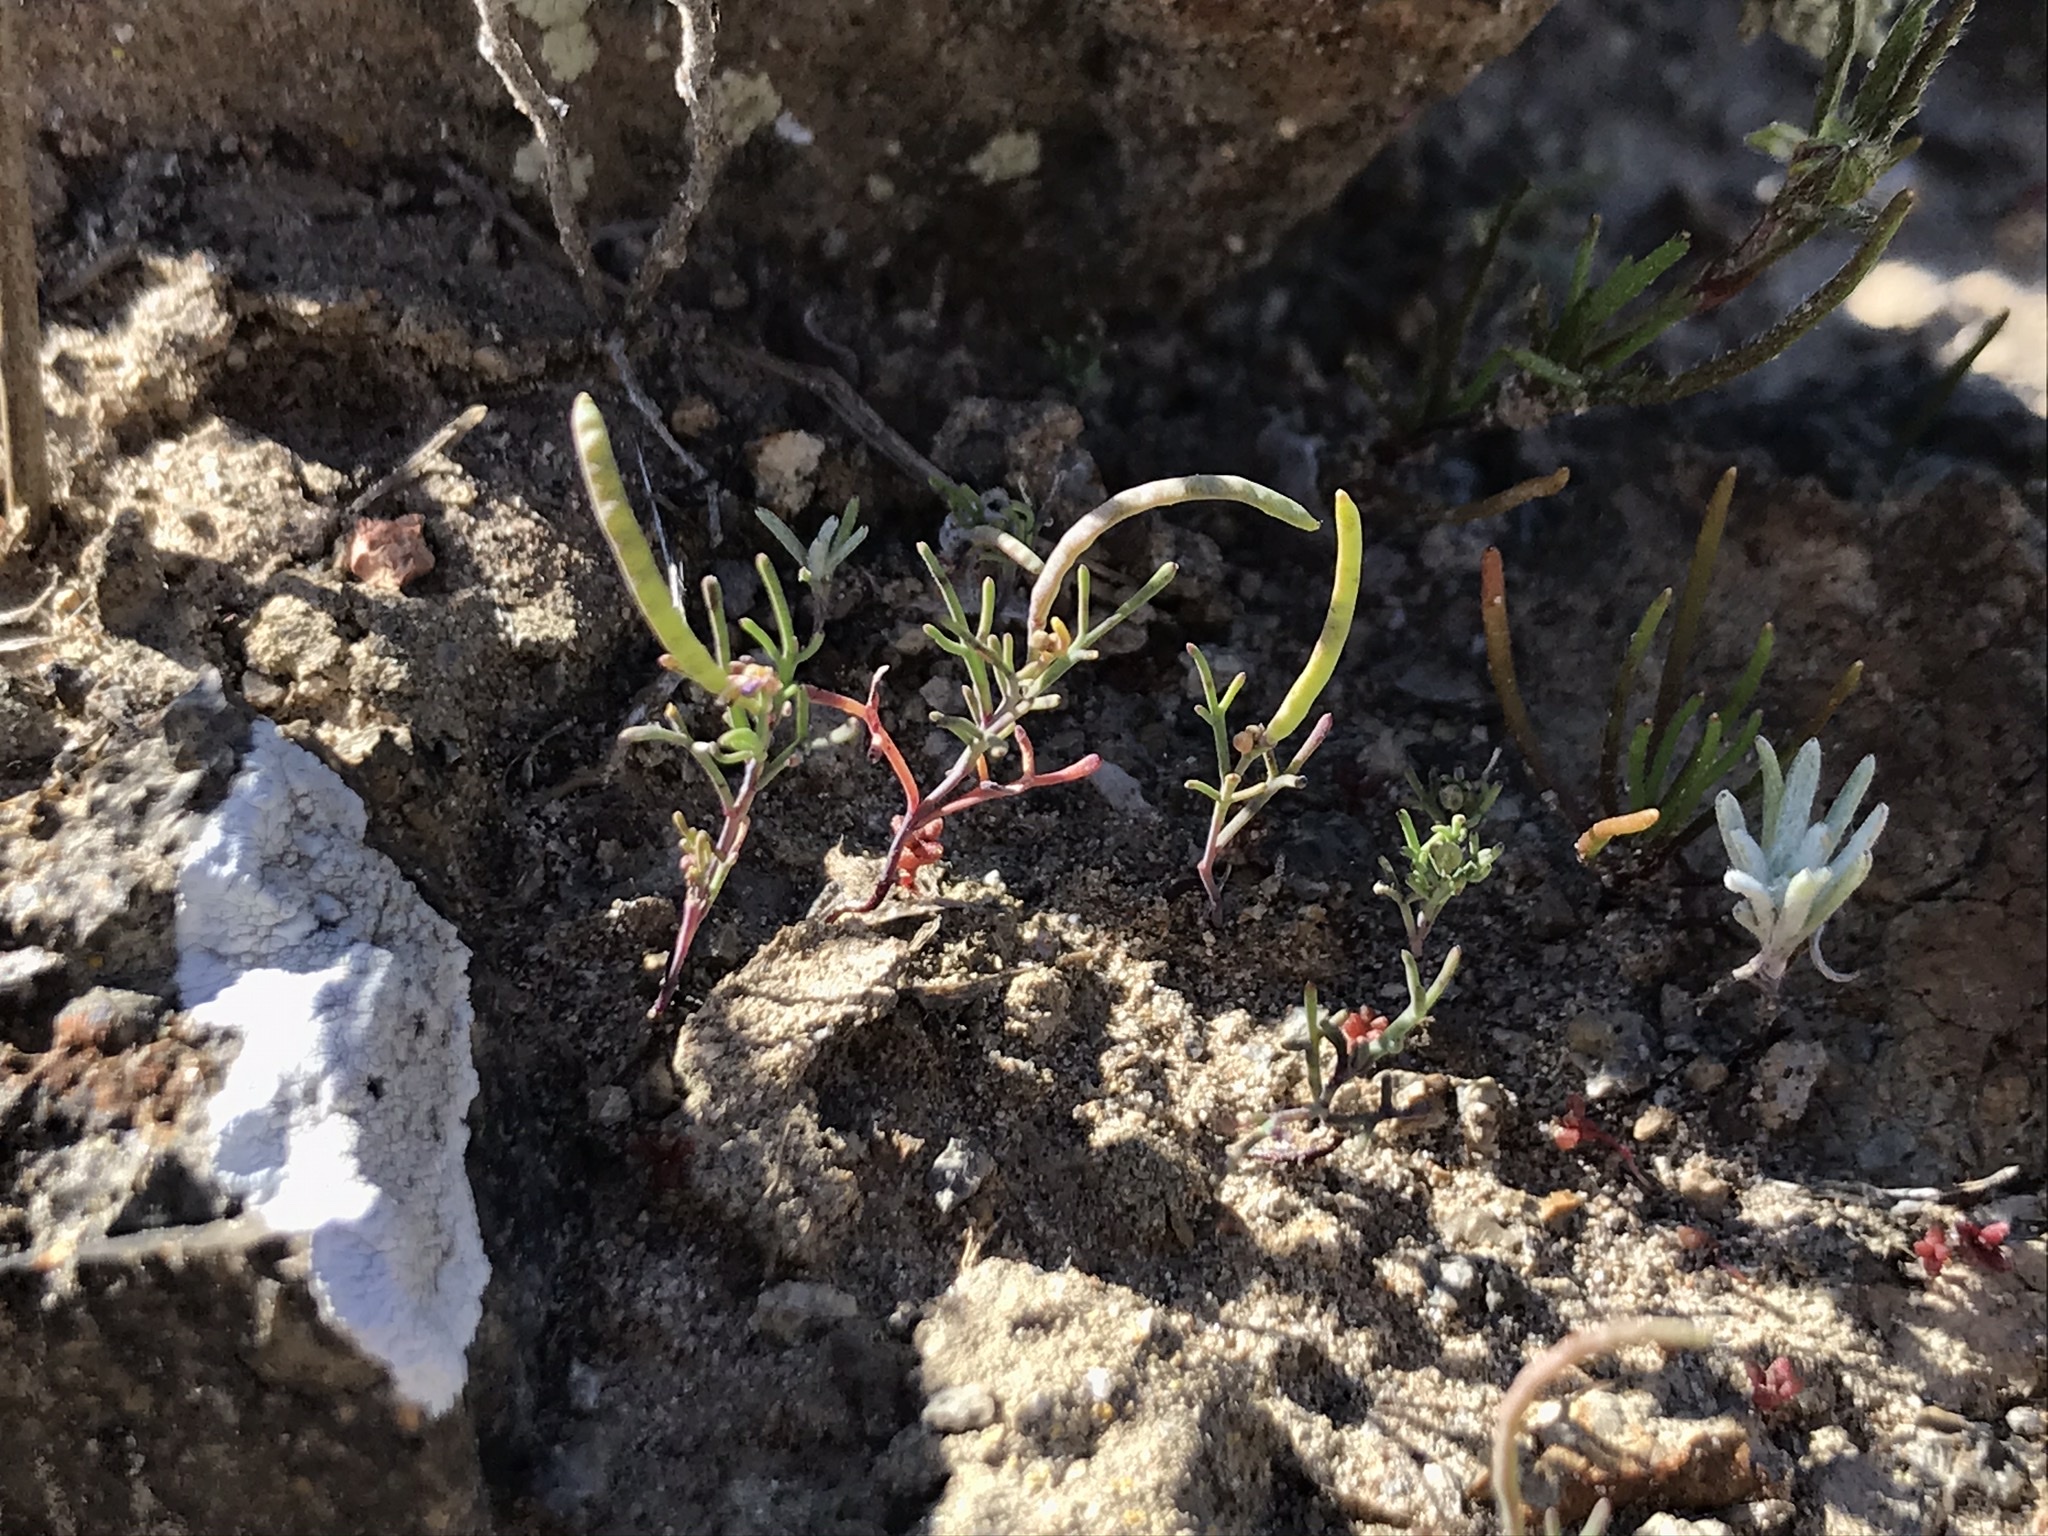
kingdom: Plantae
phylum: Tracheophyta
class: Magnoliopsida
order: Brassicales
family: Brassicaceae
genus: Sibara
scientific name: Sibara filifolia
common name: Santa cruz island-rockcress
